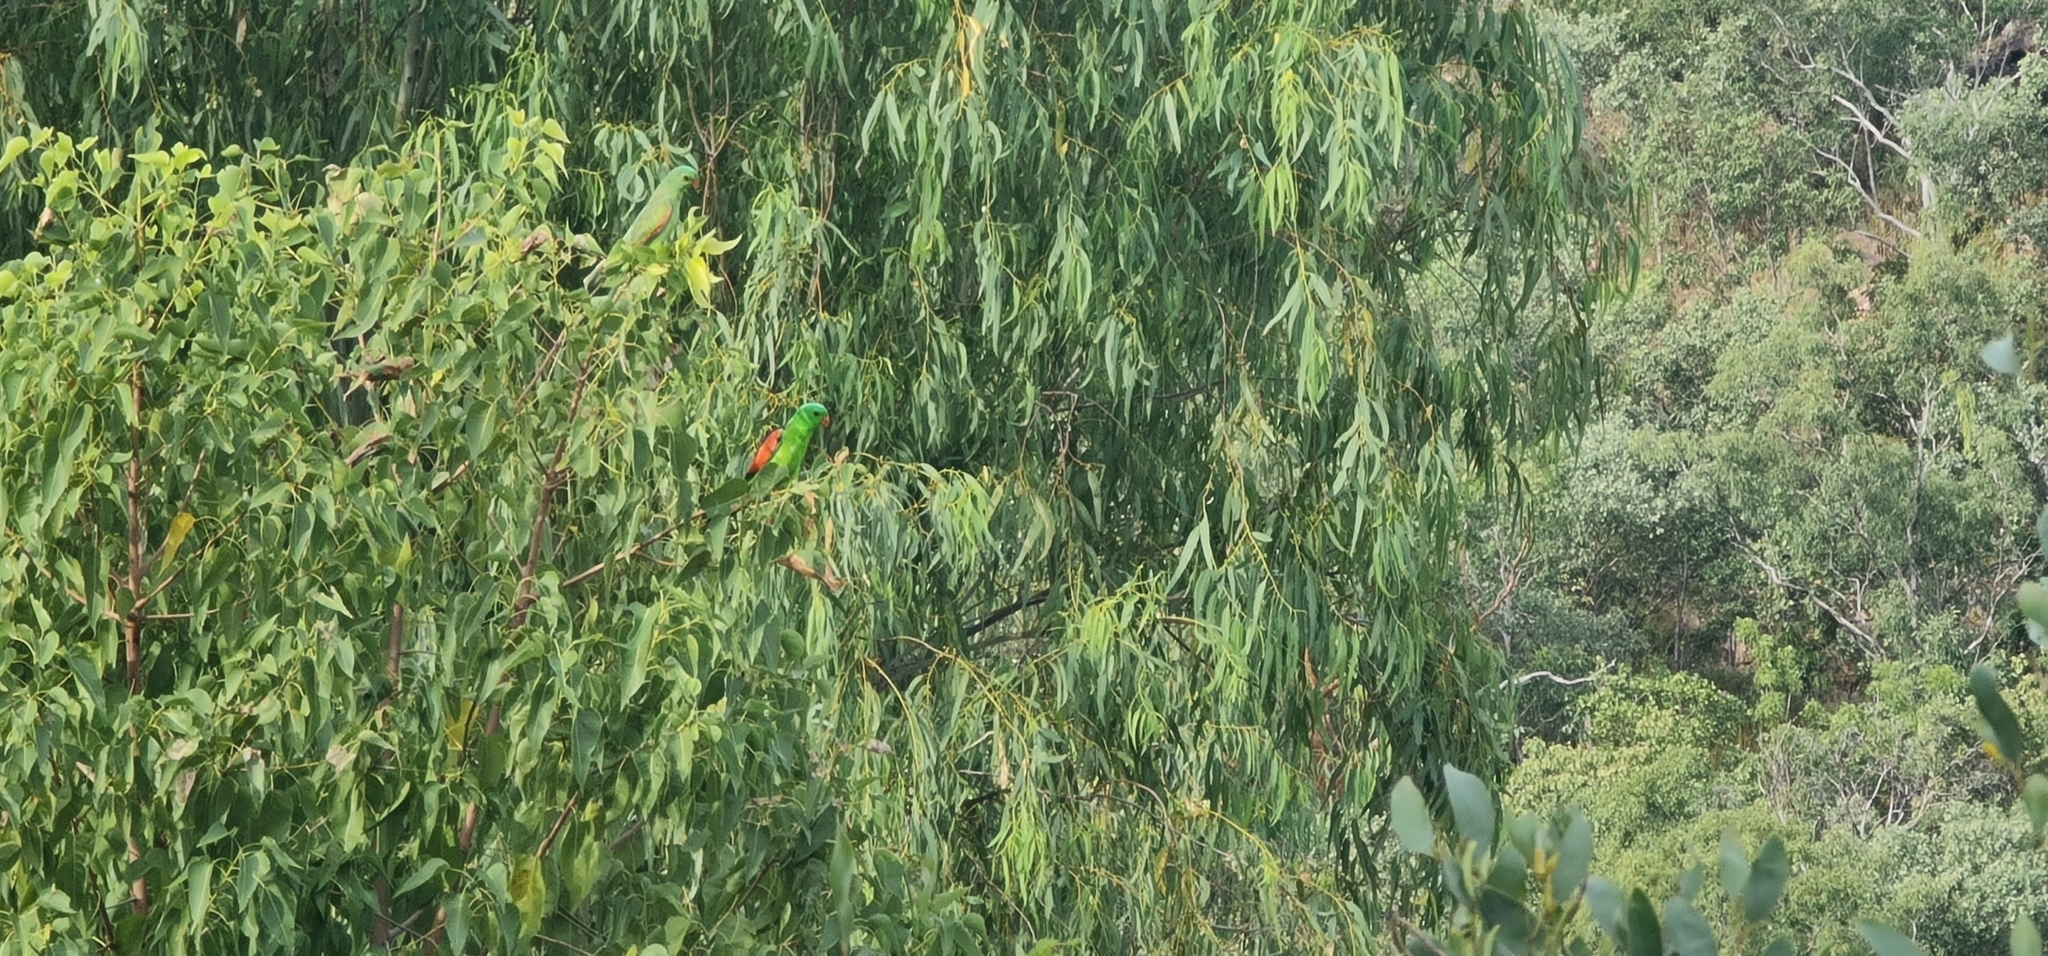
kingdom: Animalia
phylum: Chordata
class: Aves
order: Psittaciformes
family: Psittacidae
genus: Aprosmictus
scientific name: Aprosmictus erythropterus
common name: Red-winged parrot
